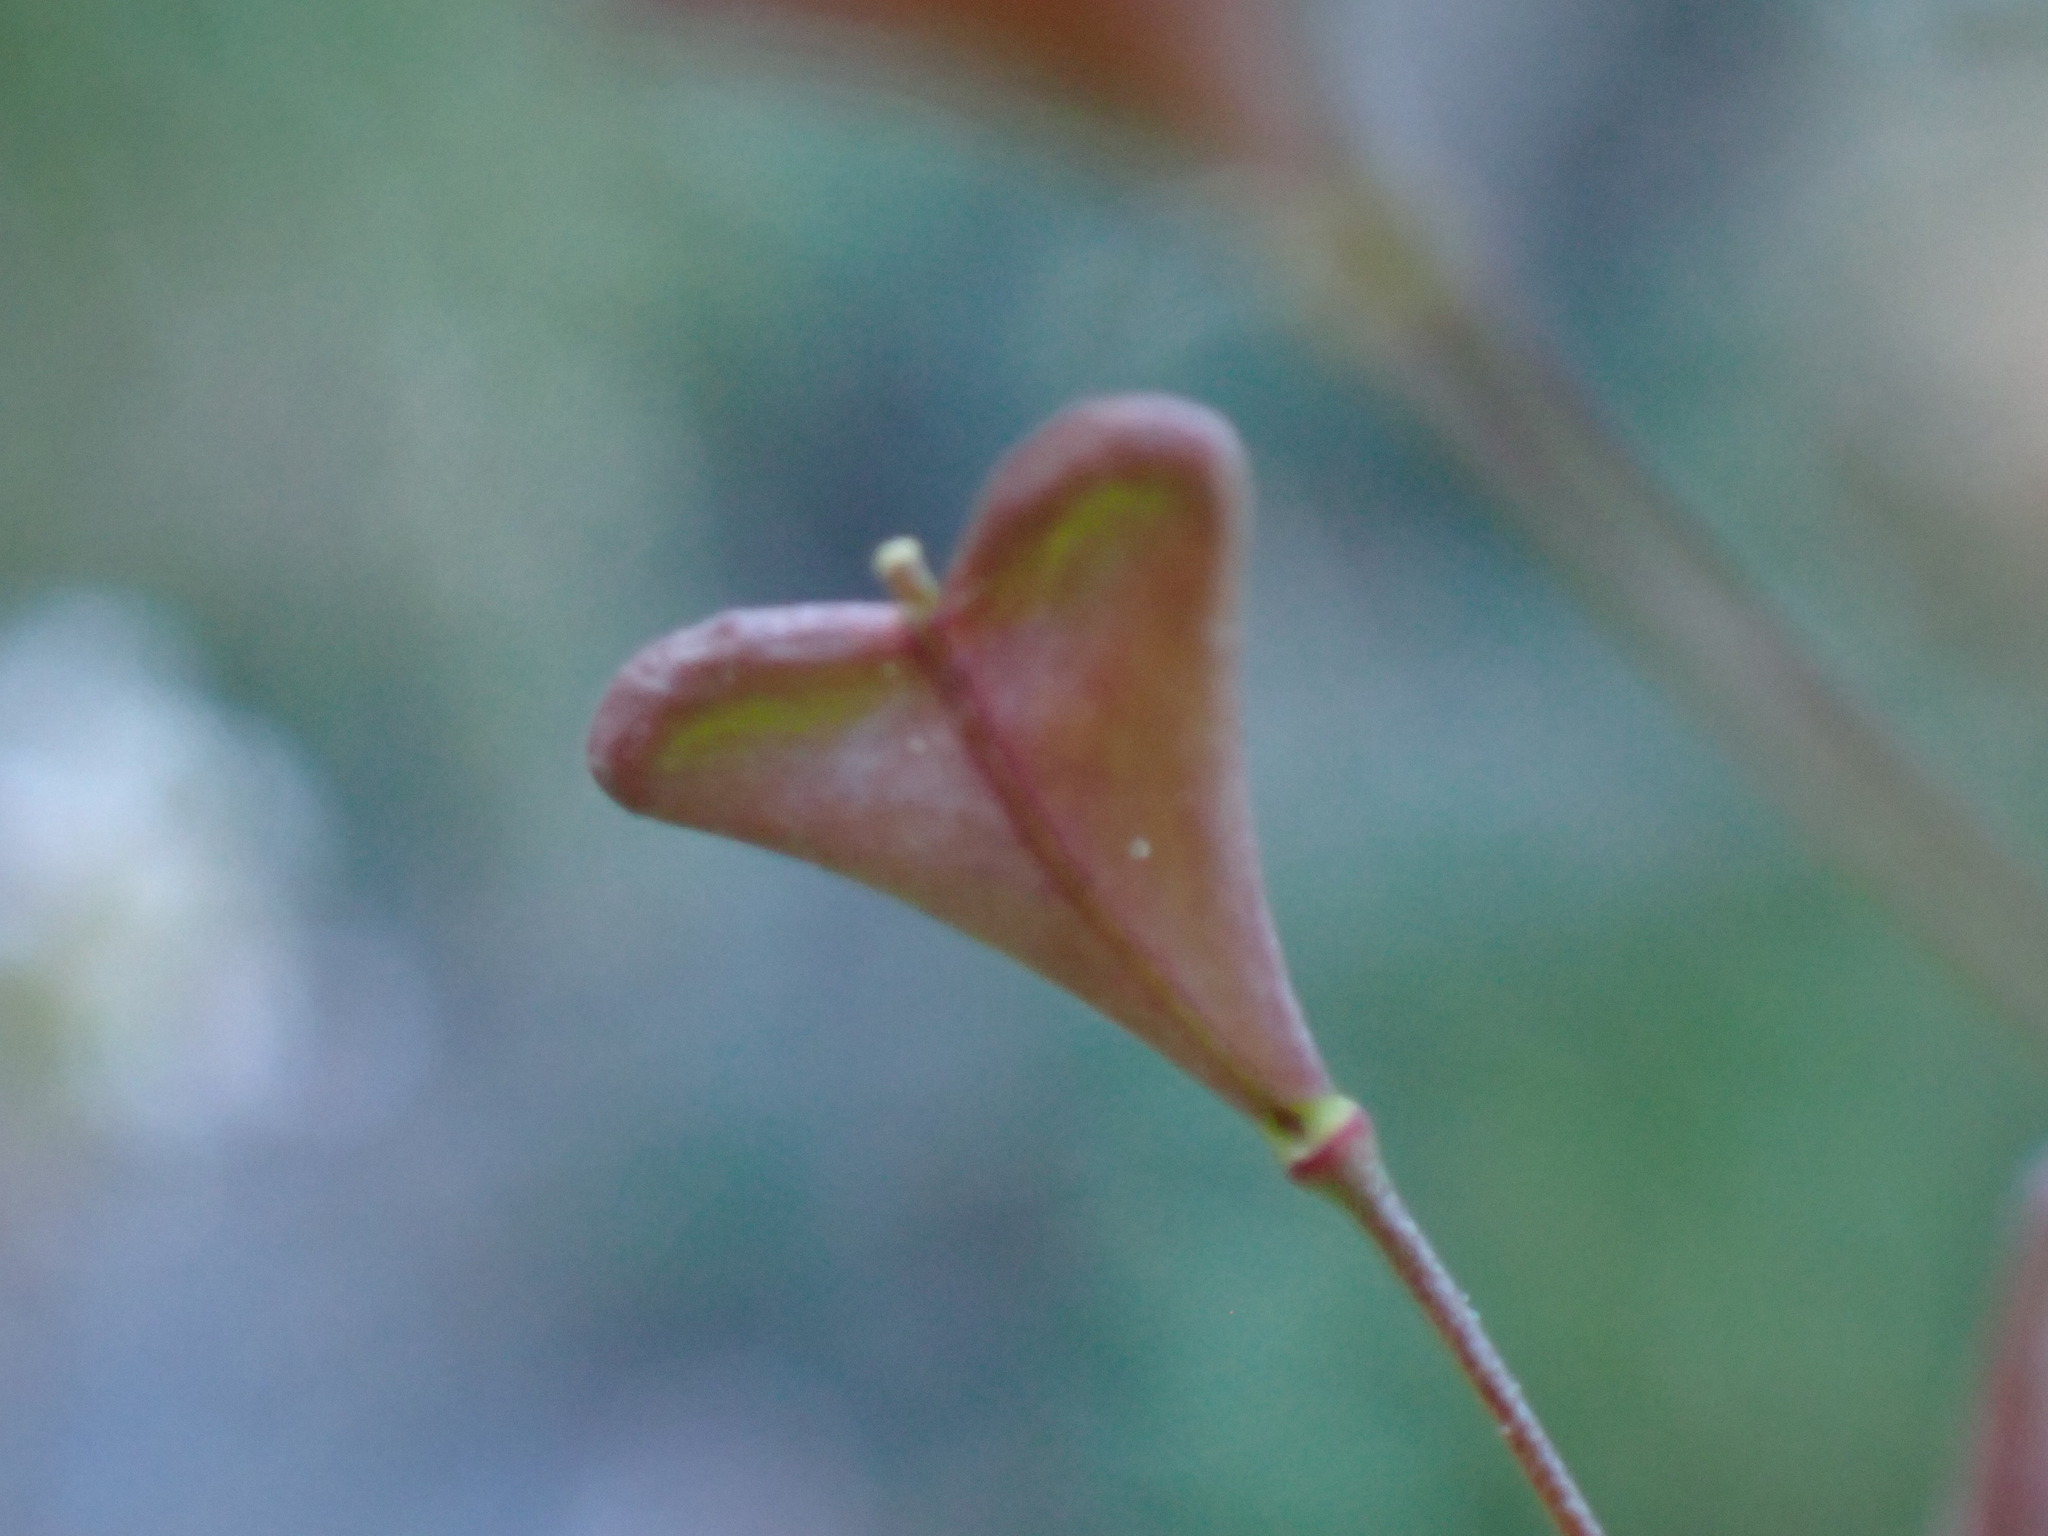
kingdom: Plantae
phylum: Tracheophyta
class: Magnoliopsida
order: Brassicales
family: Brassicaceae
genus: Capsella
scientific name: Capsella rubella
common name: Pink shepherd's-purse
